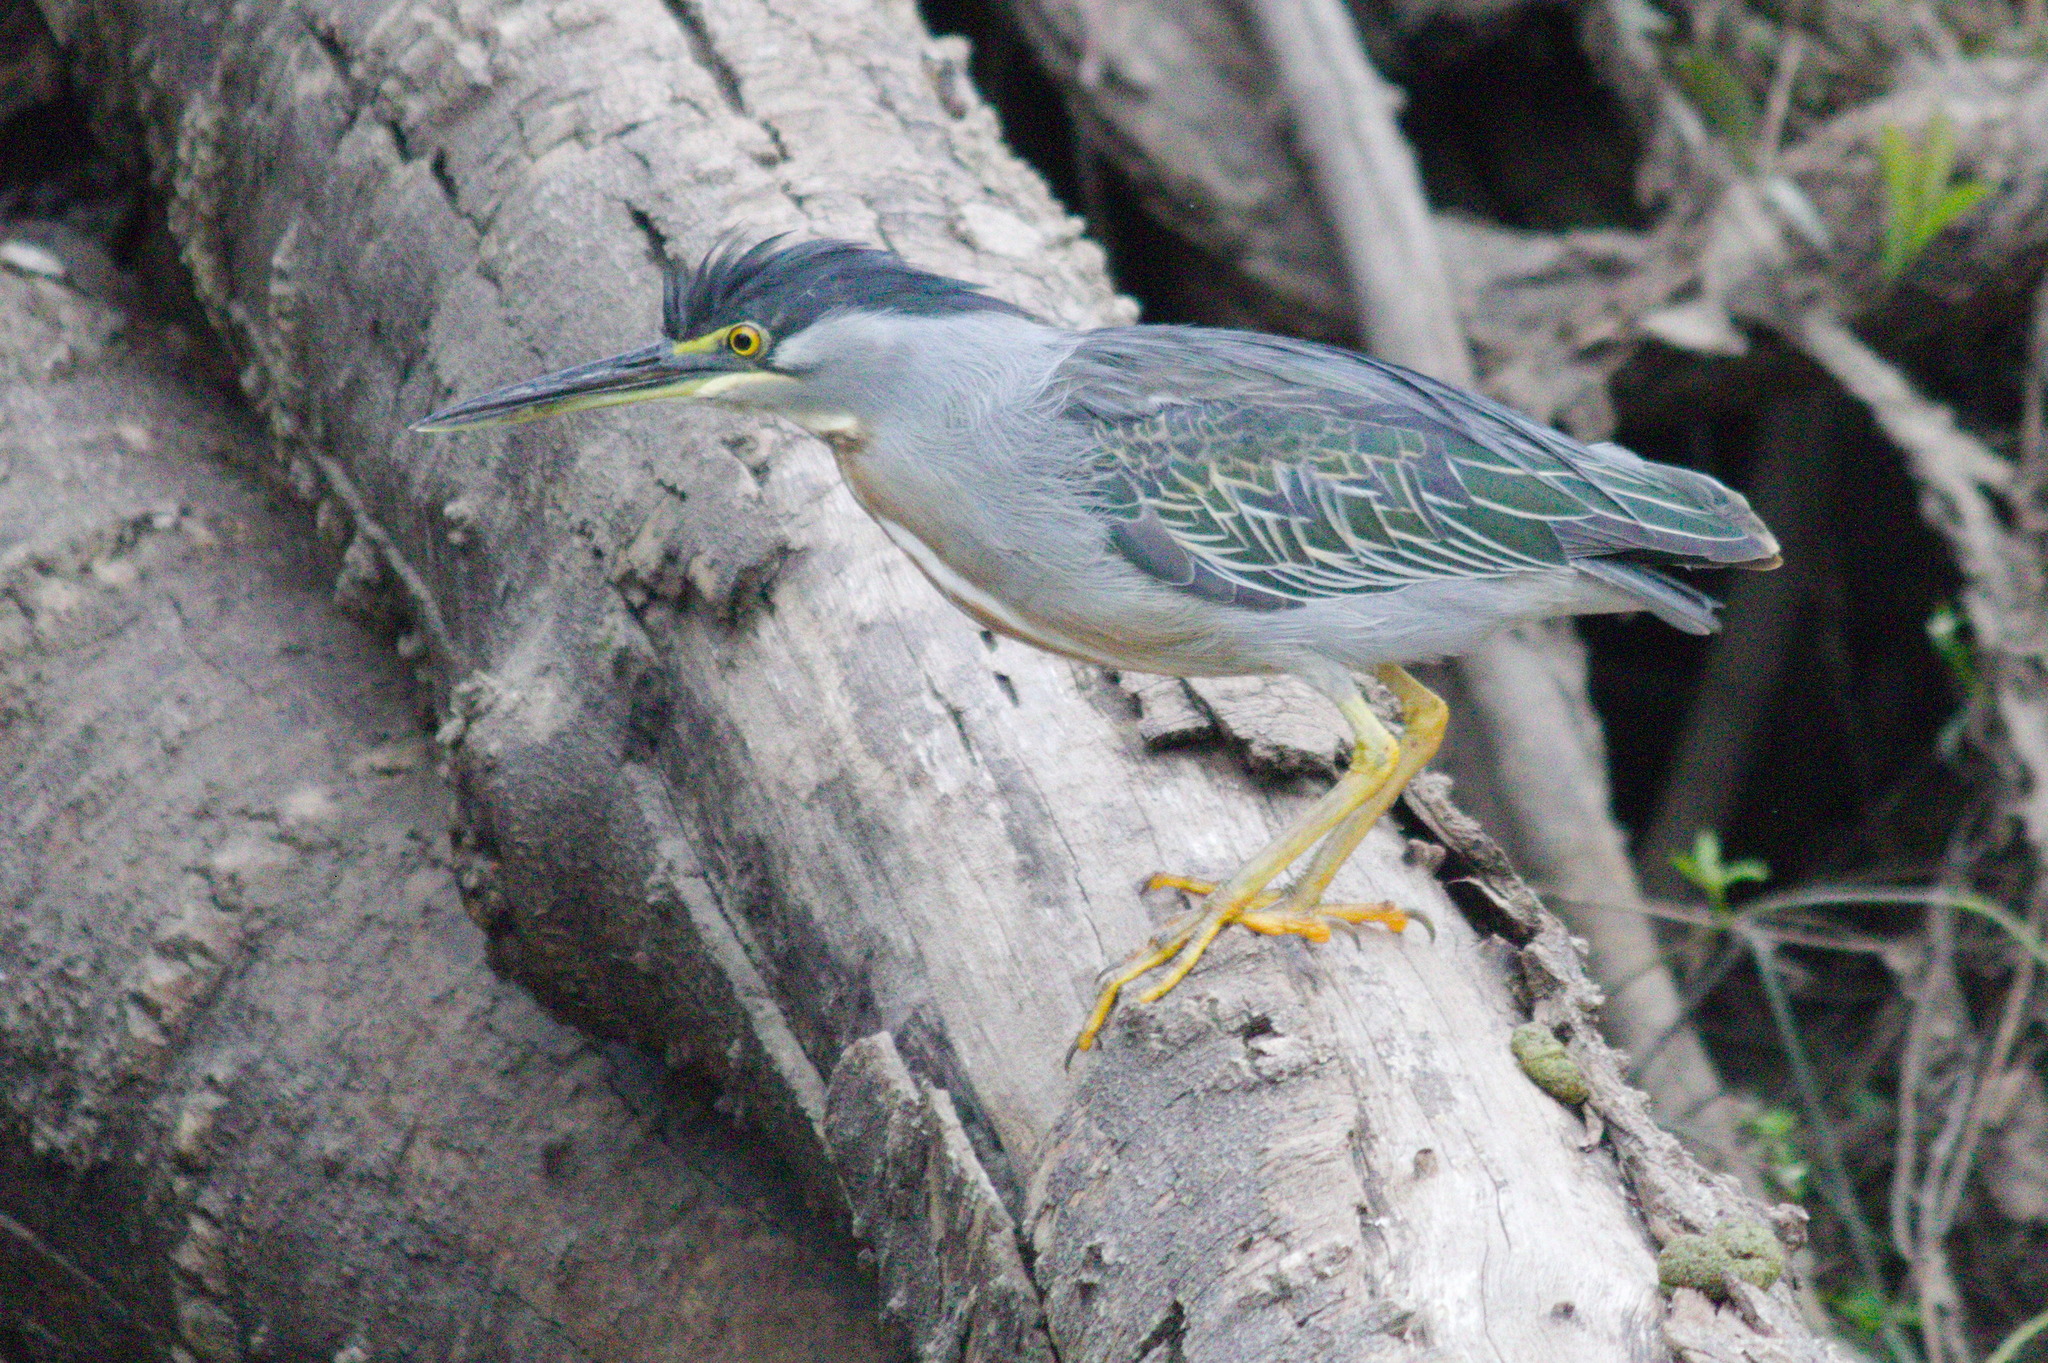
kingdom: Animalia
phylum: Chordata
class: Aves
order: Pelecaniformes
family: Ardeidae
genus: Butorides
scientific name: Butorides striata
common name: Striated heron
